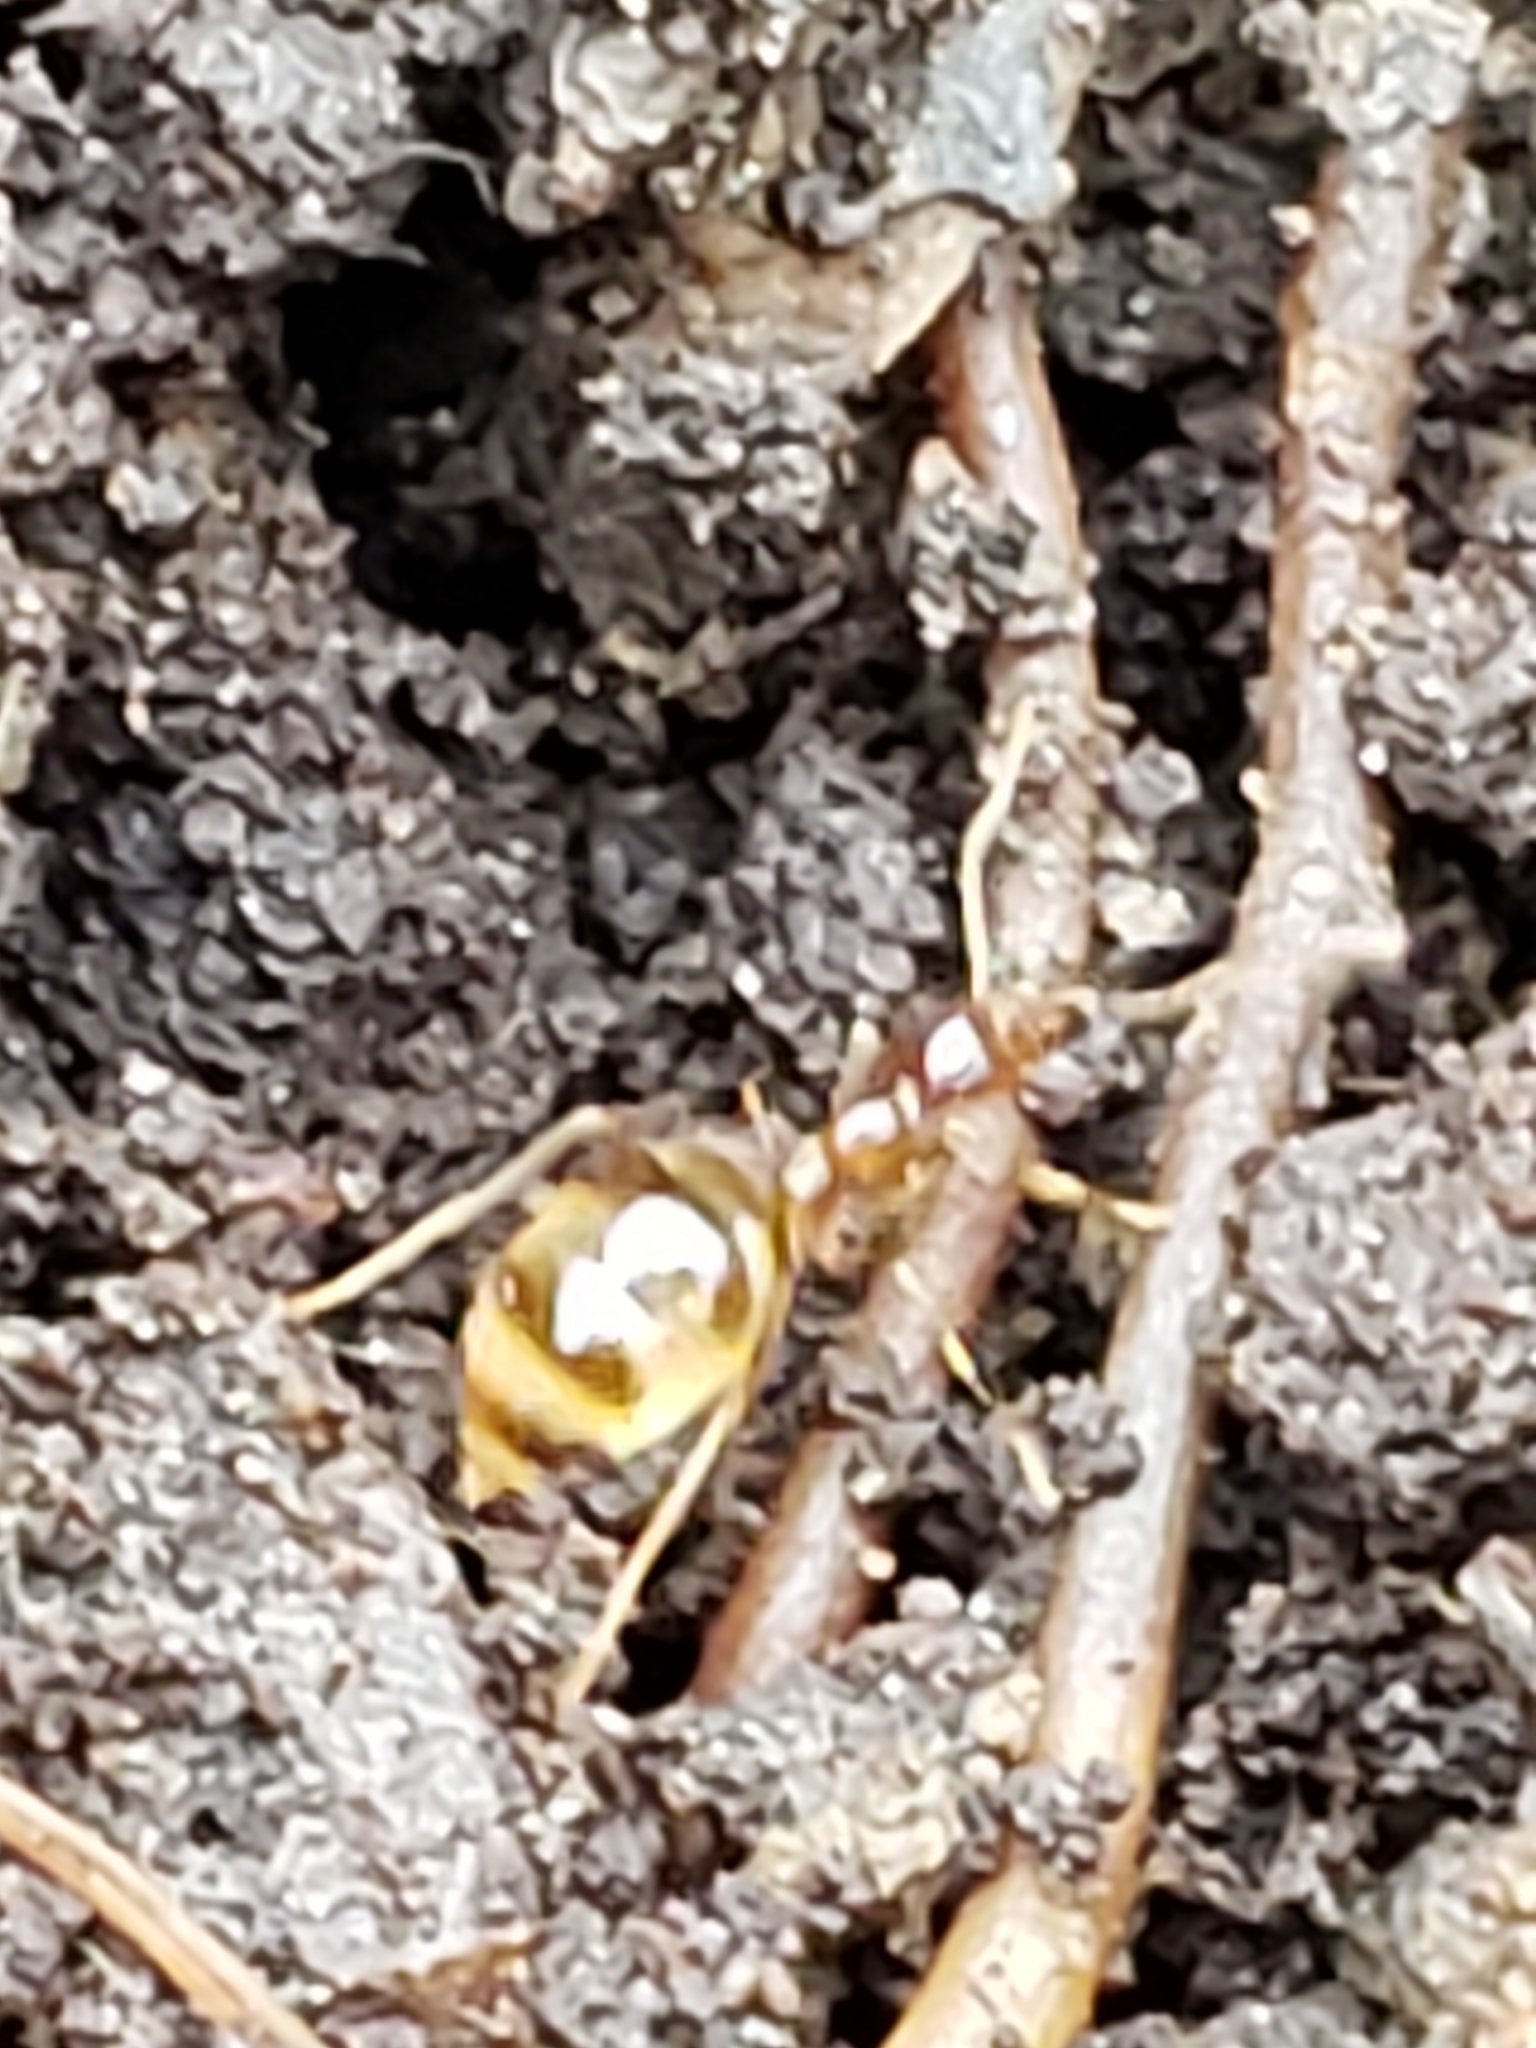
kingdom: Animalia
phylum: Arthropoda
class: Insecta
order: Hymenoptera
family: Formicidae
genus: Prenolepis
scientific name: Prenolepis imparis
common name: Small honey ant
